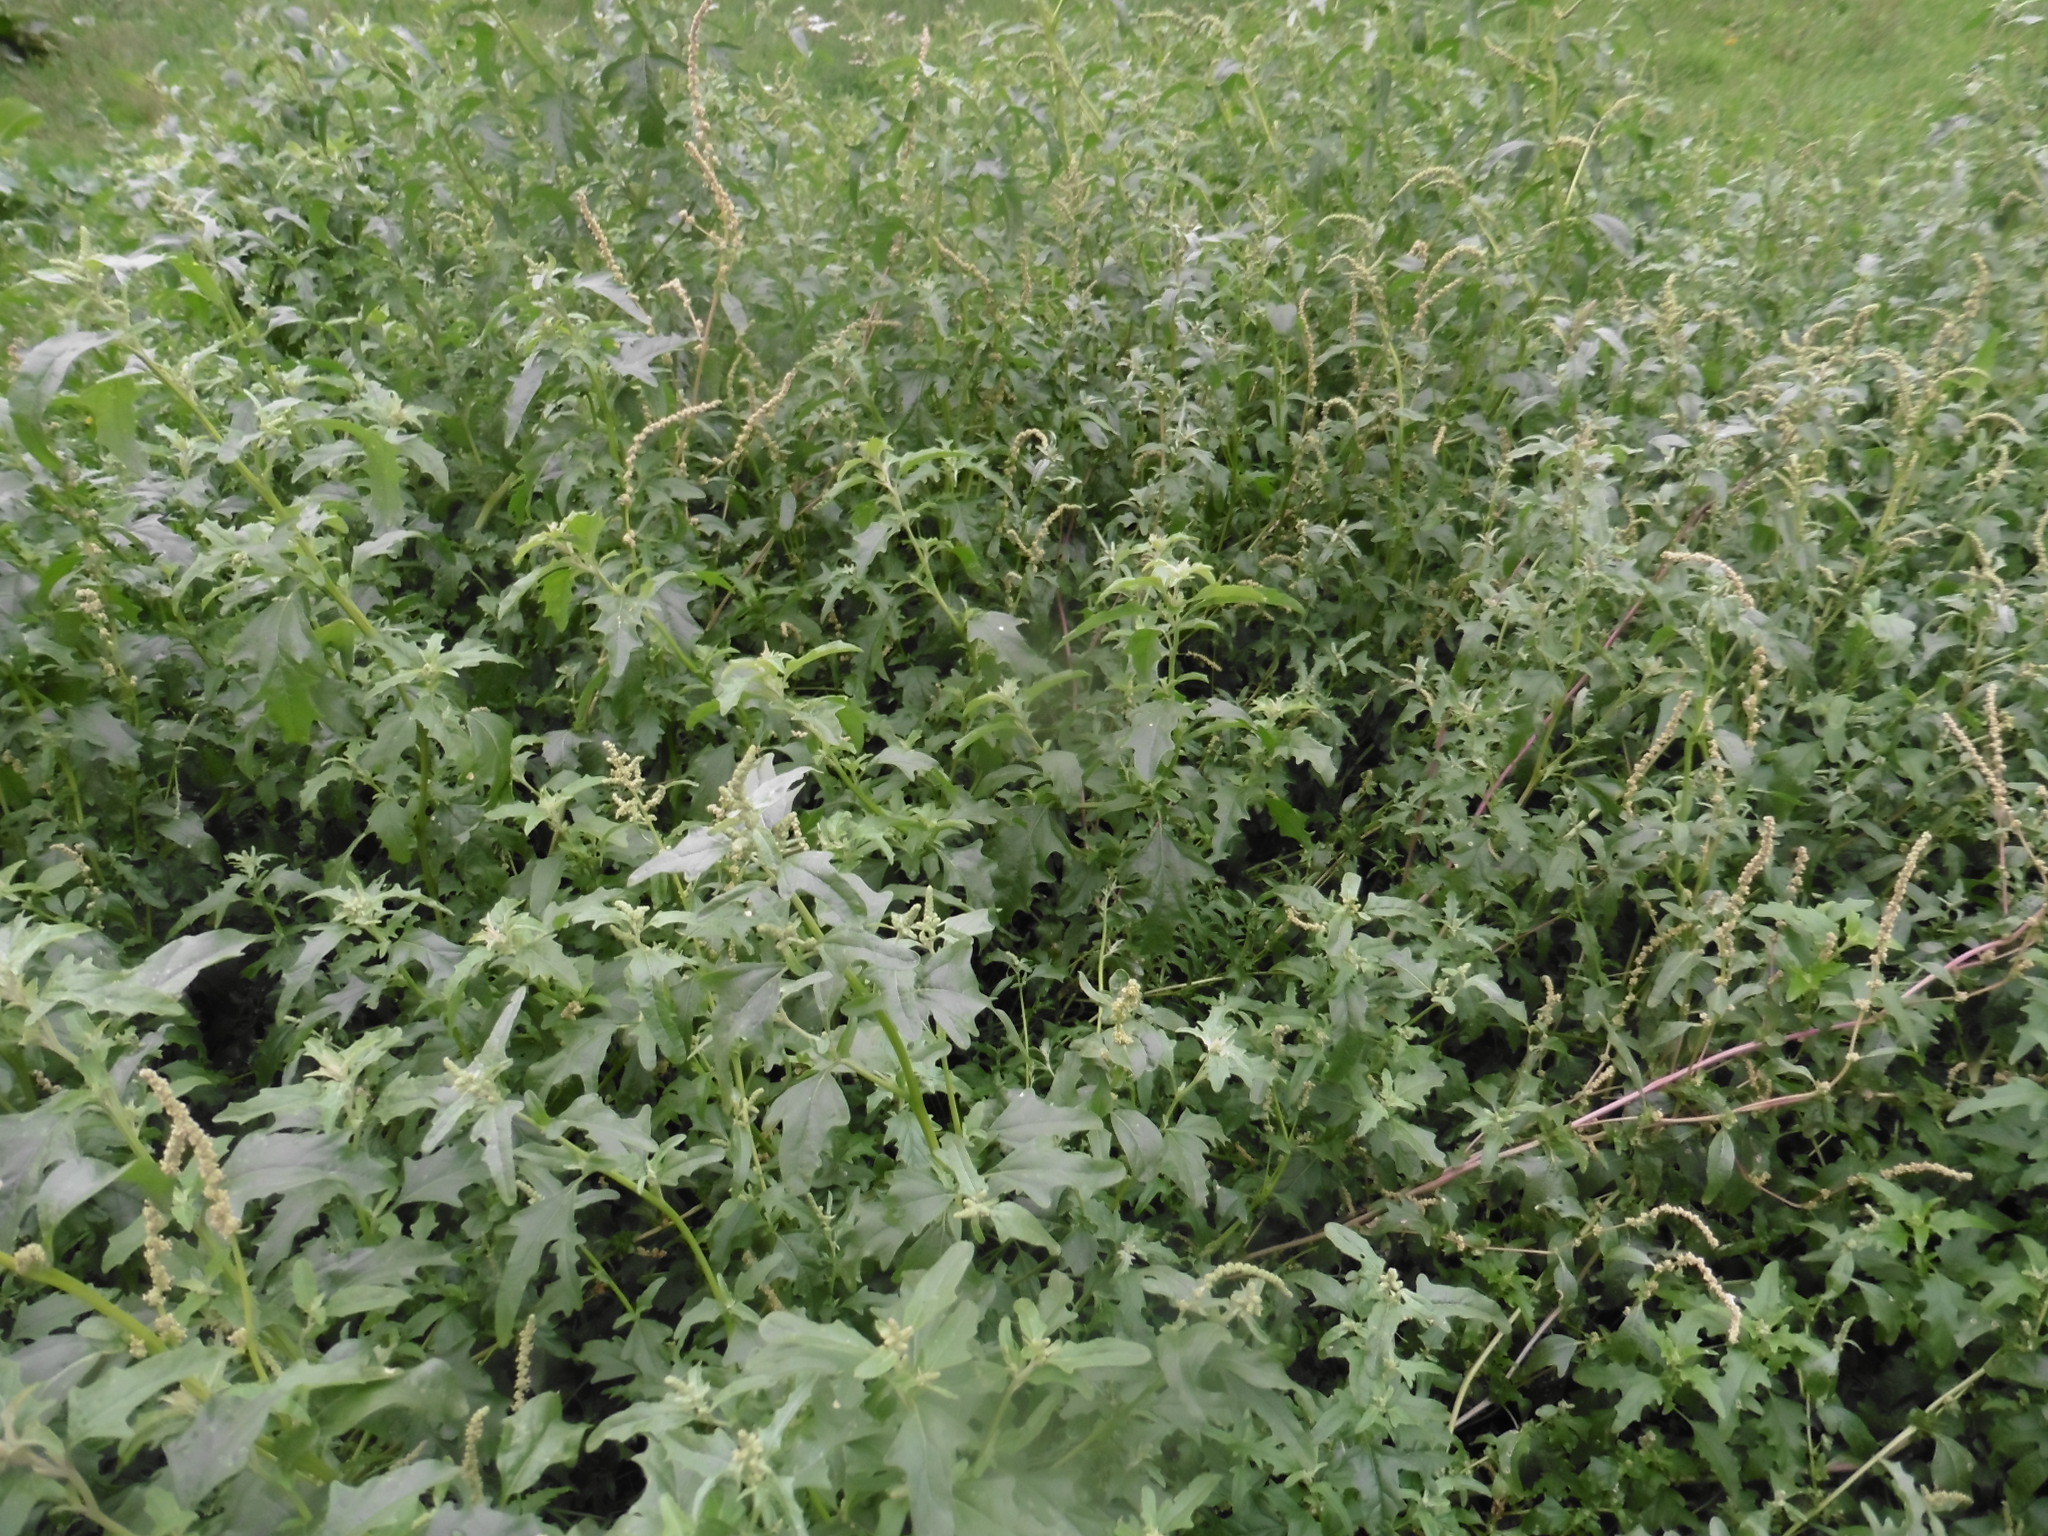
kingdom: Plantae
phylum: Tracheophyta
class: Magnoliopsida
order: Caryophyllales
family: Amaranthaceae
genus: Atriplex
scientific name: Atriplex tatarica
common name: Tatarian orache
